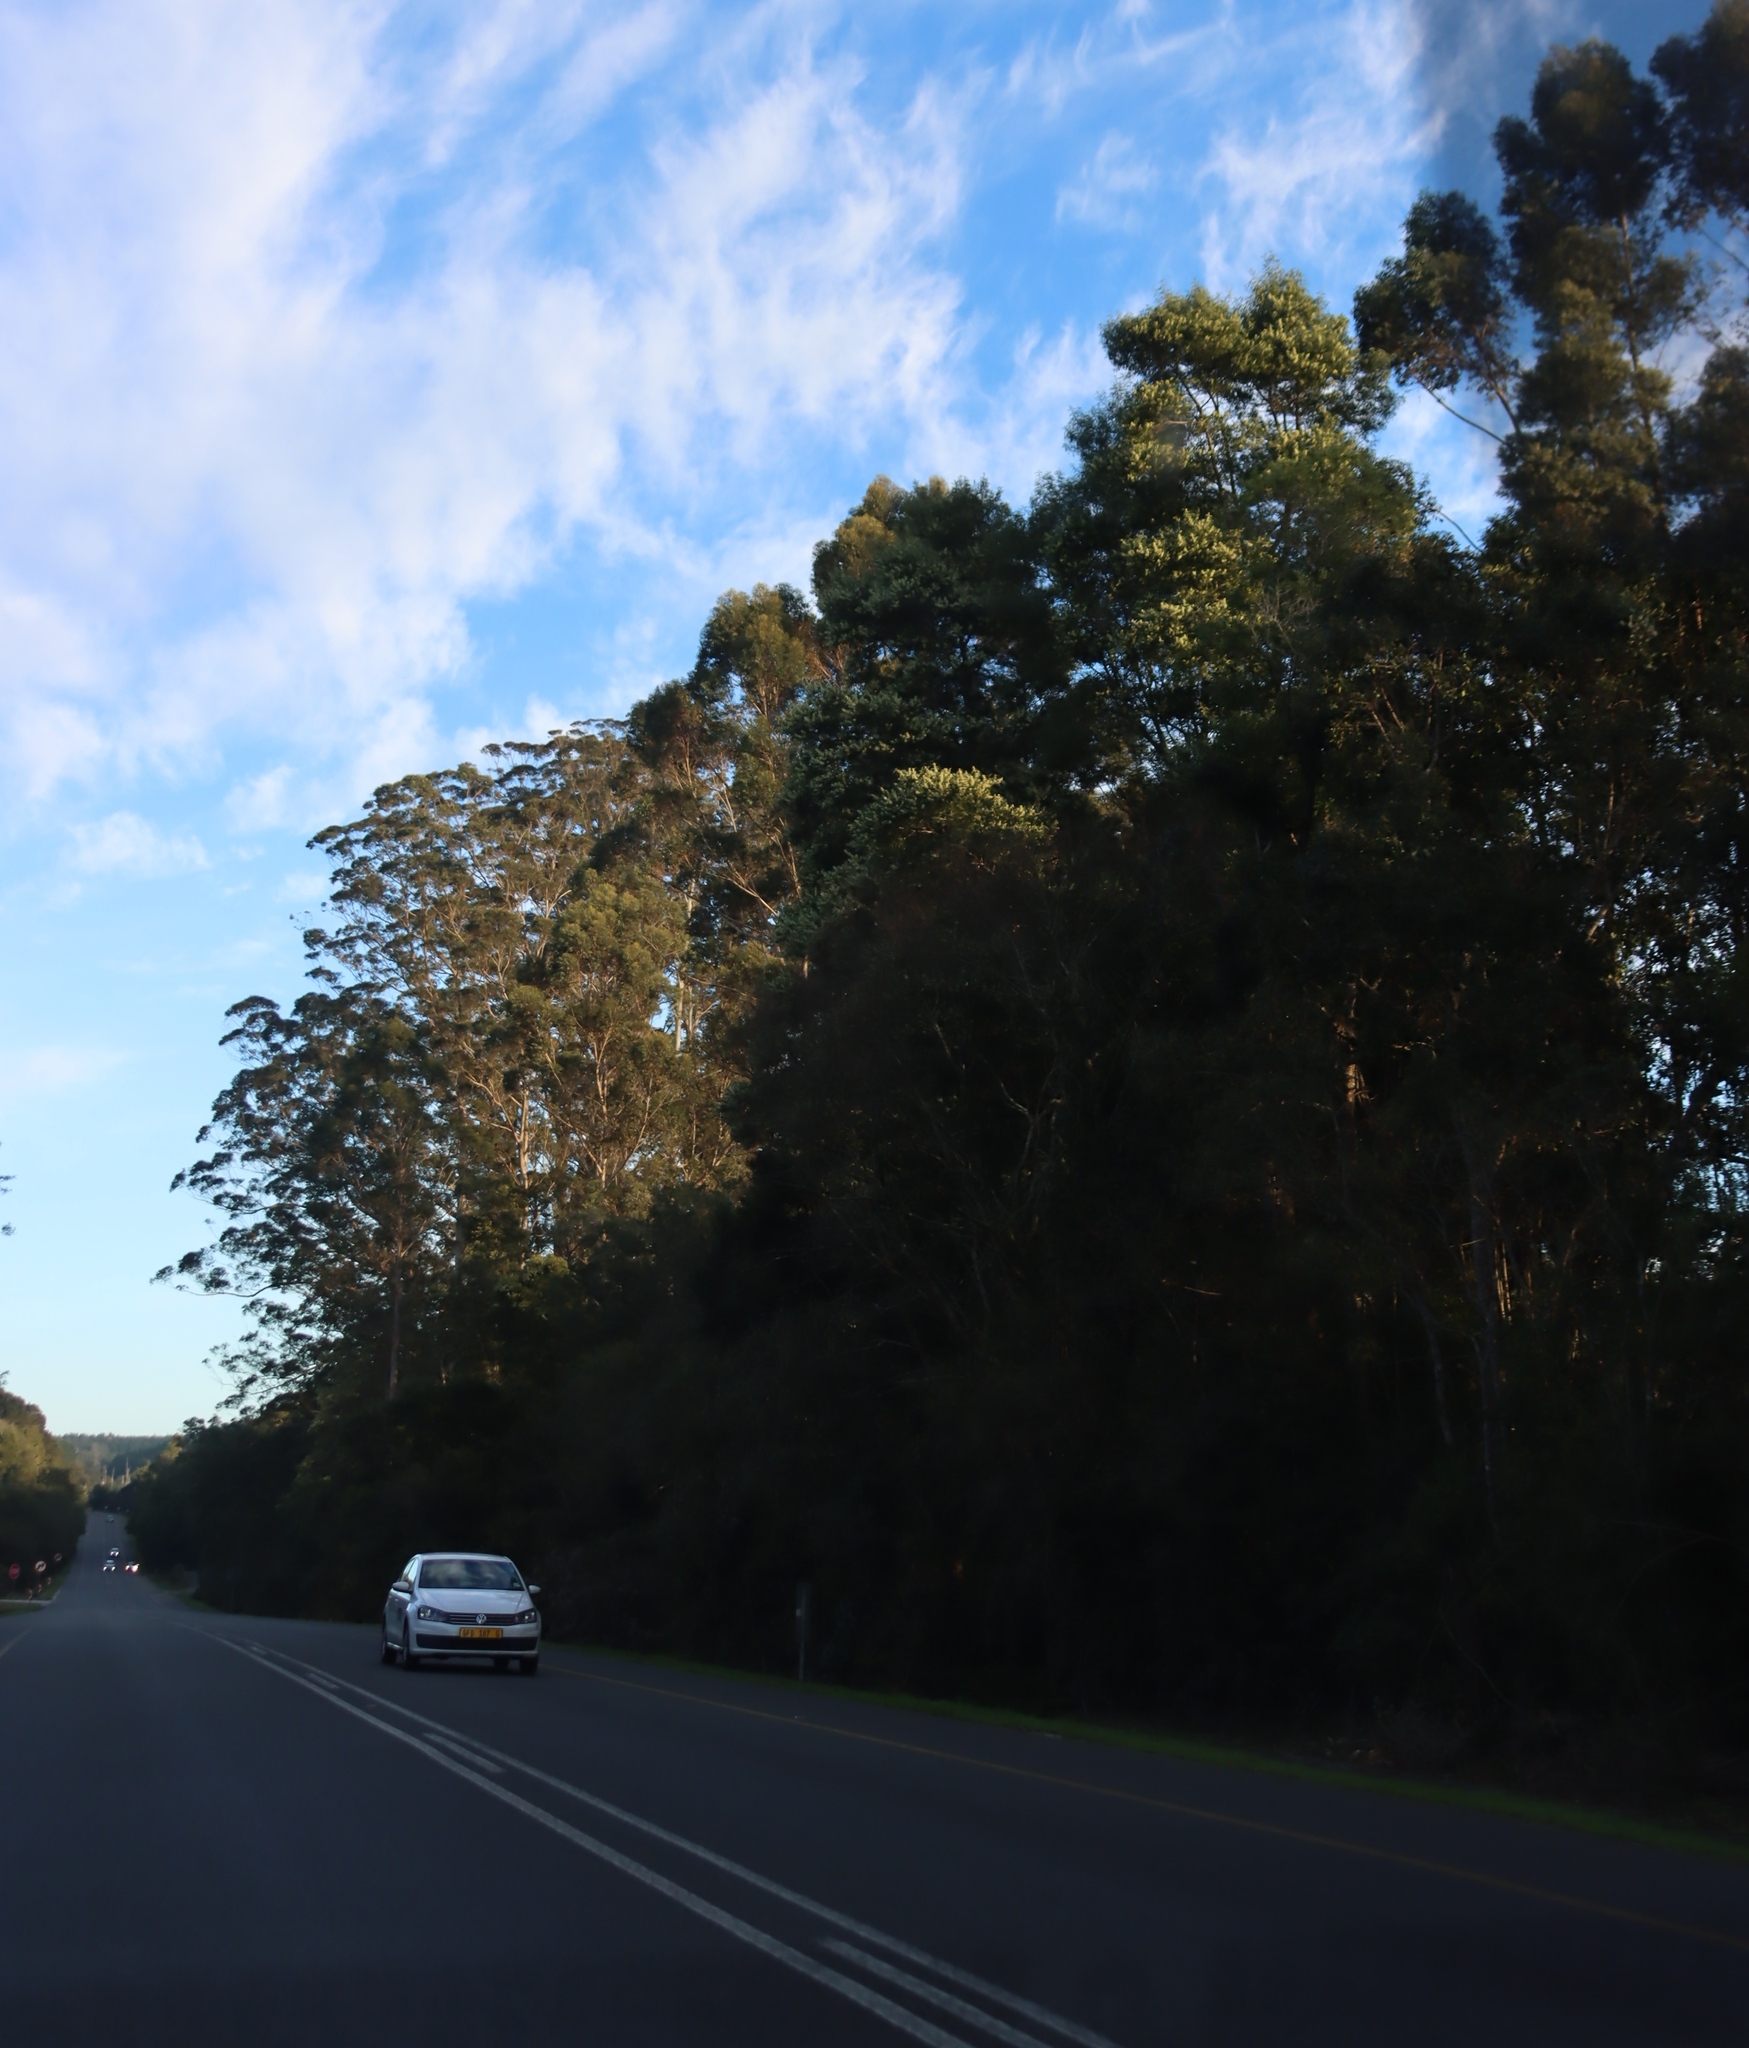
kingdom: Plantae
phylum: Tracheophyta
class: Magnoliopsida
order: Fabales
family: Fabaceae
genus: Acacia
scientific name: Acacia melanoxylon
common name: Blackwood
